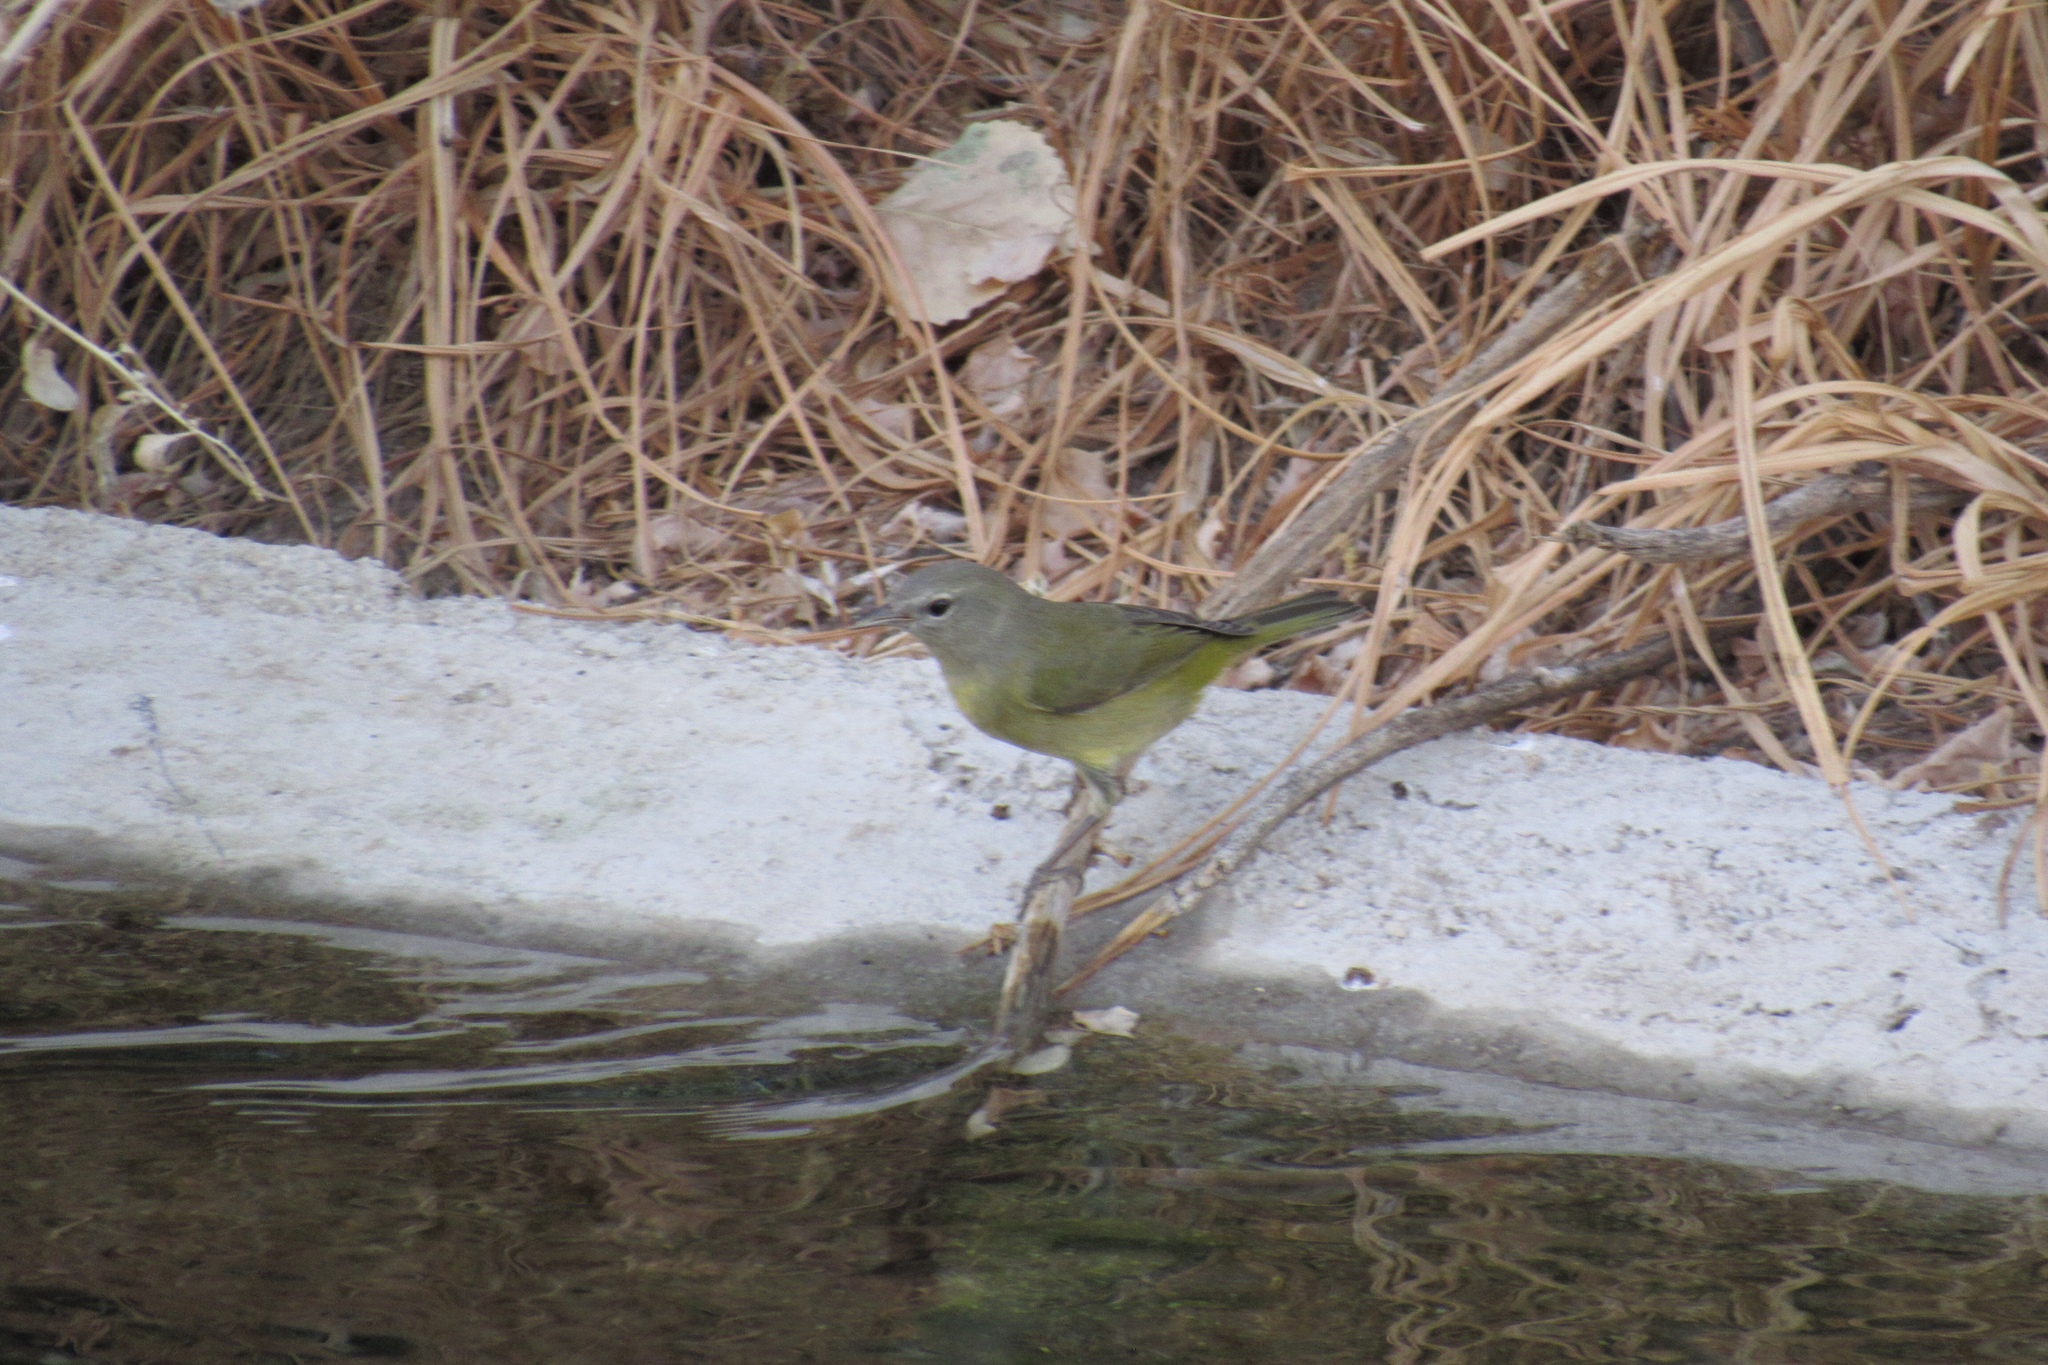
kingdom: Animalia
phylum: Chordata
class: Aves
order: Passeriformes
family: Parulidae
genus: Leiothlypis
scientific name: Leiothlypis celata
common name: Orange-crowned warbler
